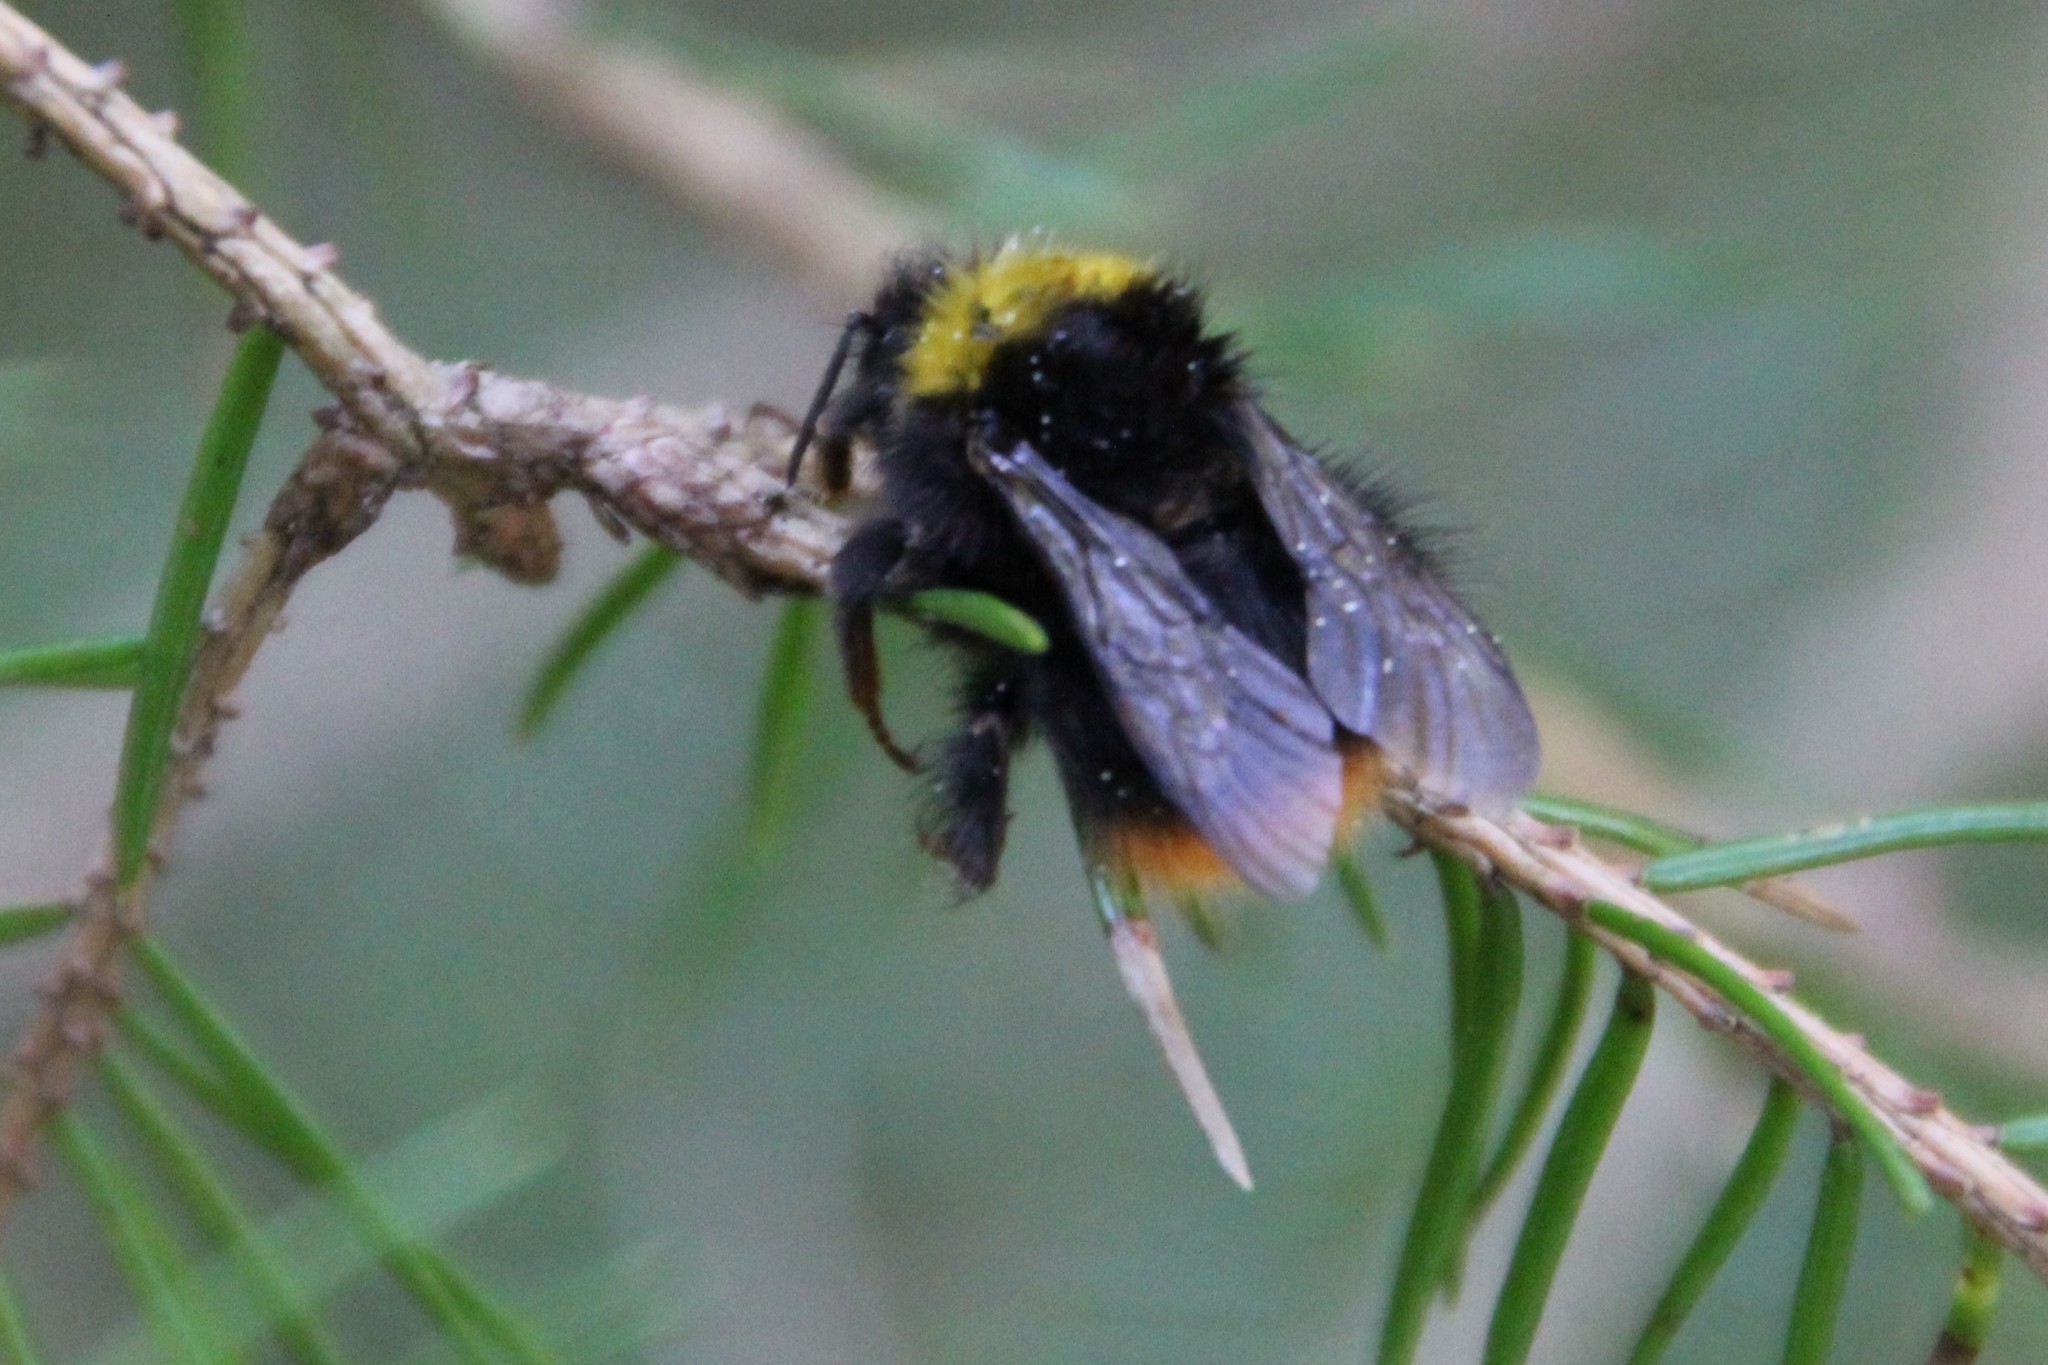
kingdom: Animalia
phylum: Arthropoda
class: Insecta
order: Hymenoptera
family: Apidae
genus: Bombus
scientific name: Bombus pratorum
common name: Early humble-bee
